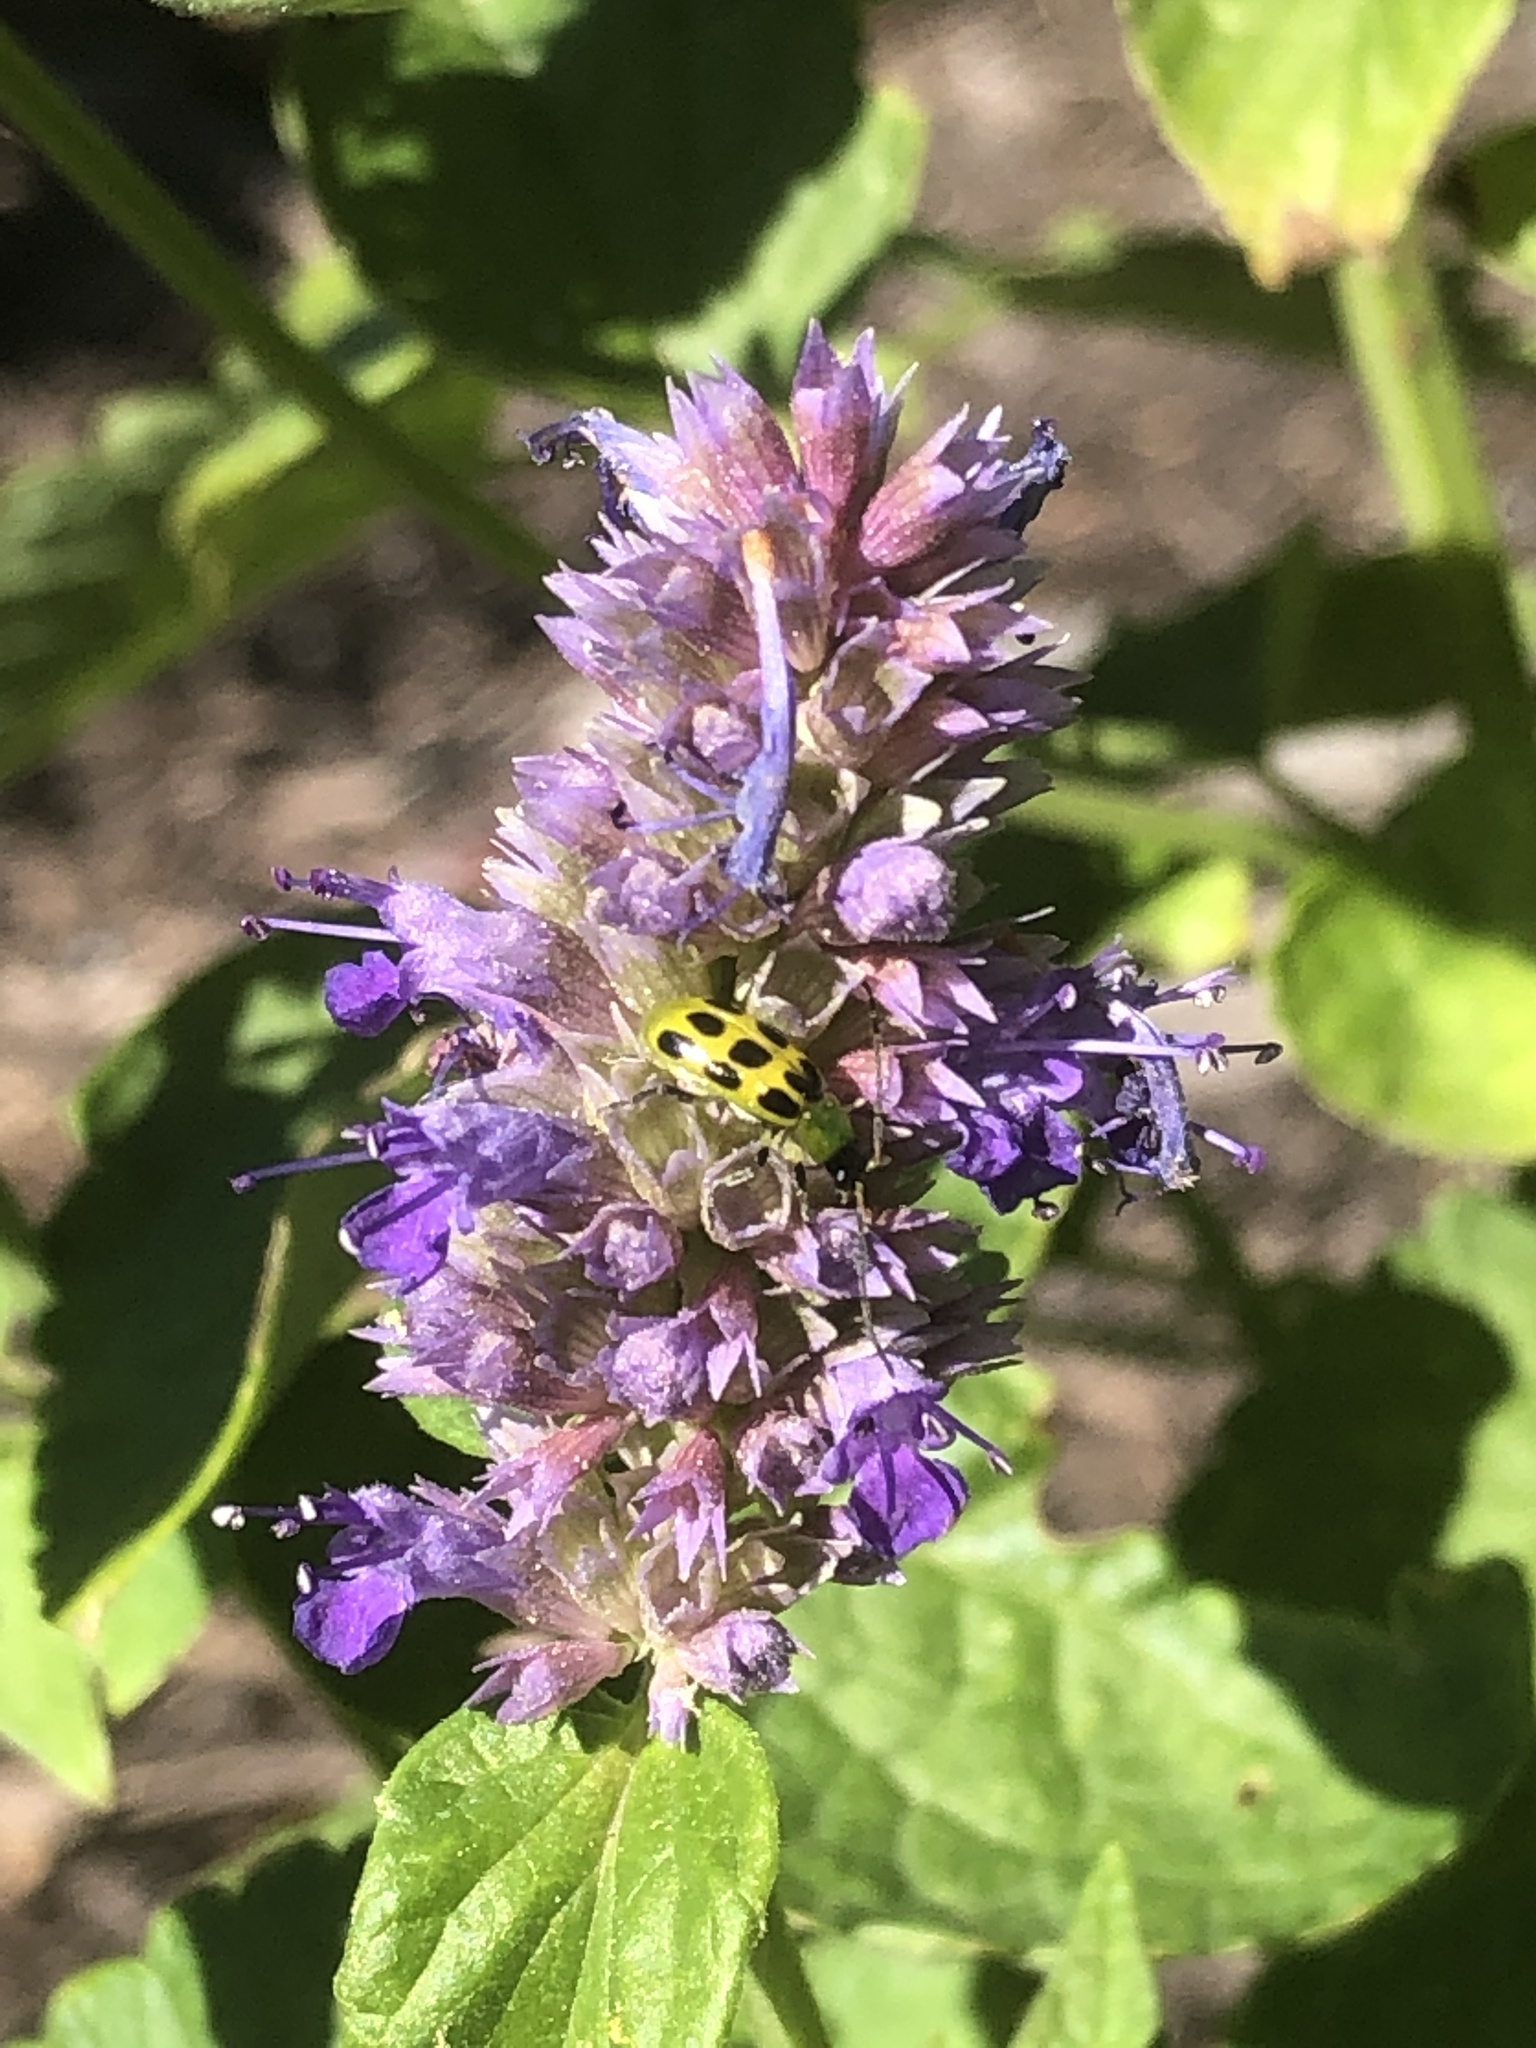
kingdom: Animalia
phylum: Arthropoda
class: Insecta
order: Coleoptera
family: Chrysomelidae
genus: Diabrotica
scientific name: Diabrotica undecimpunctata
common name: Spotted cucumber beetle
